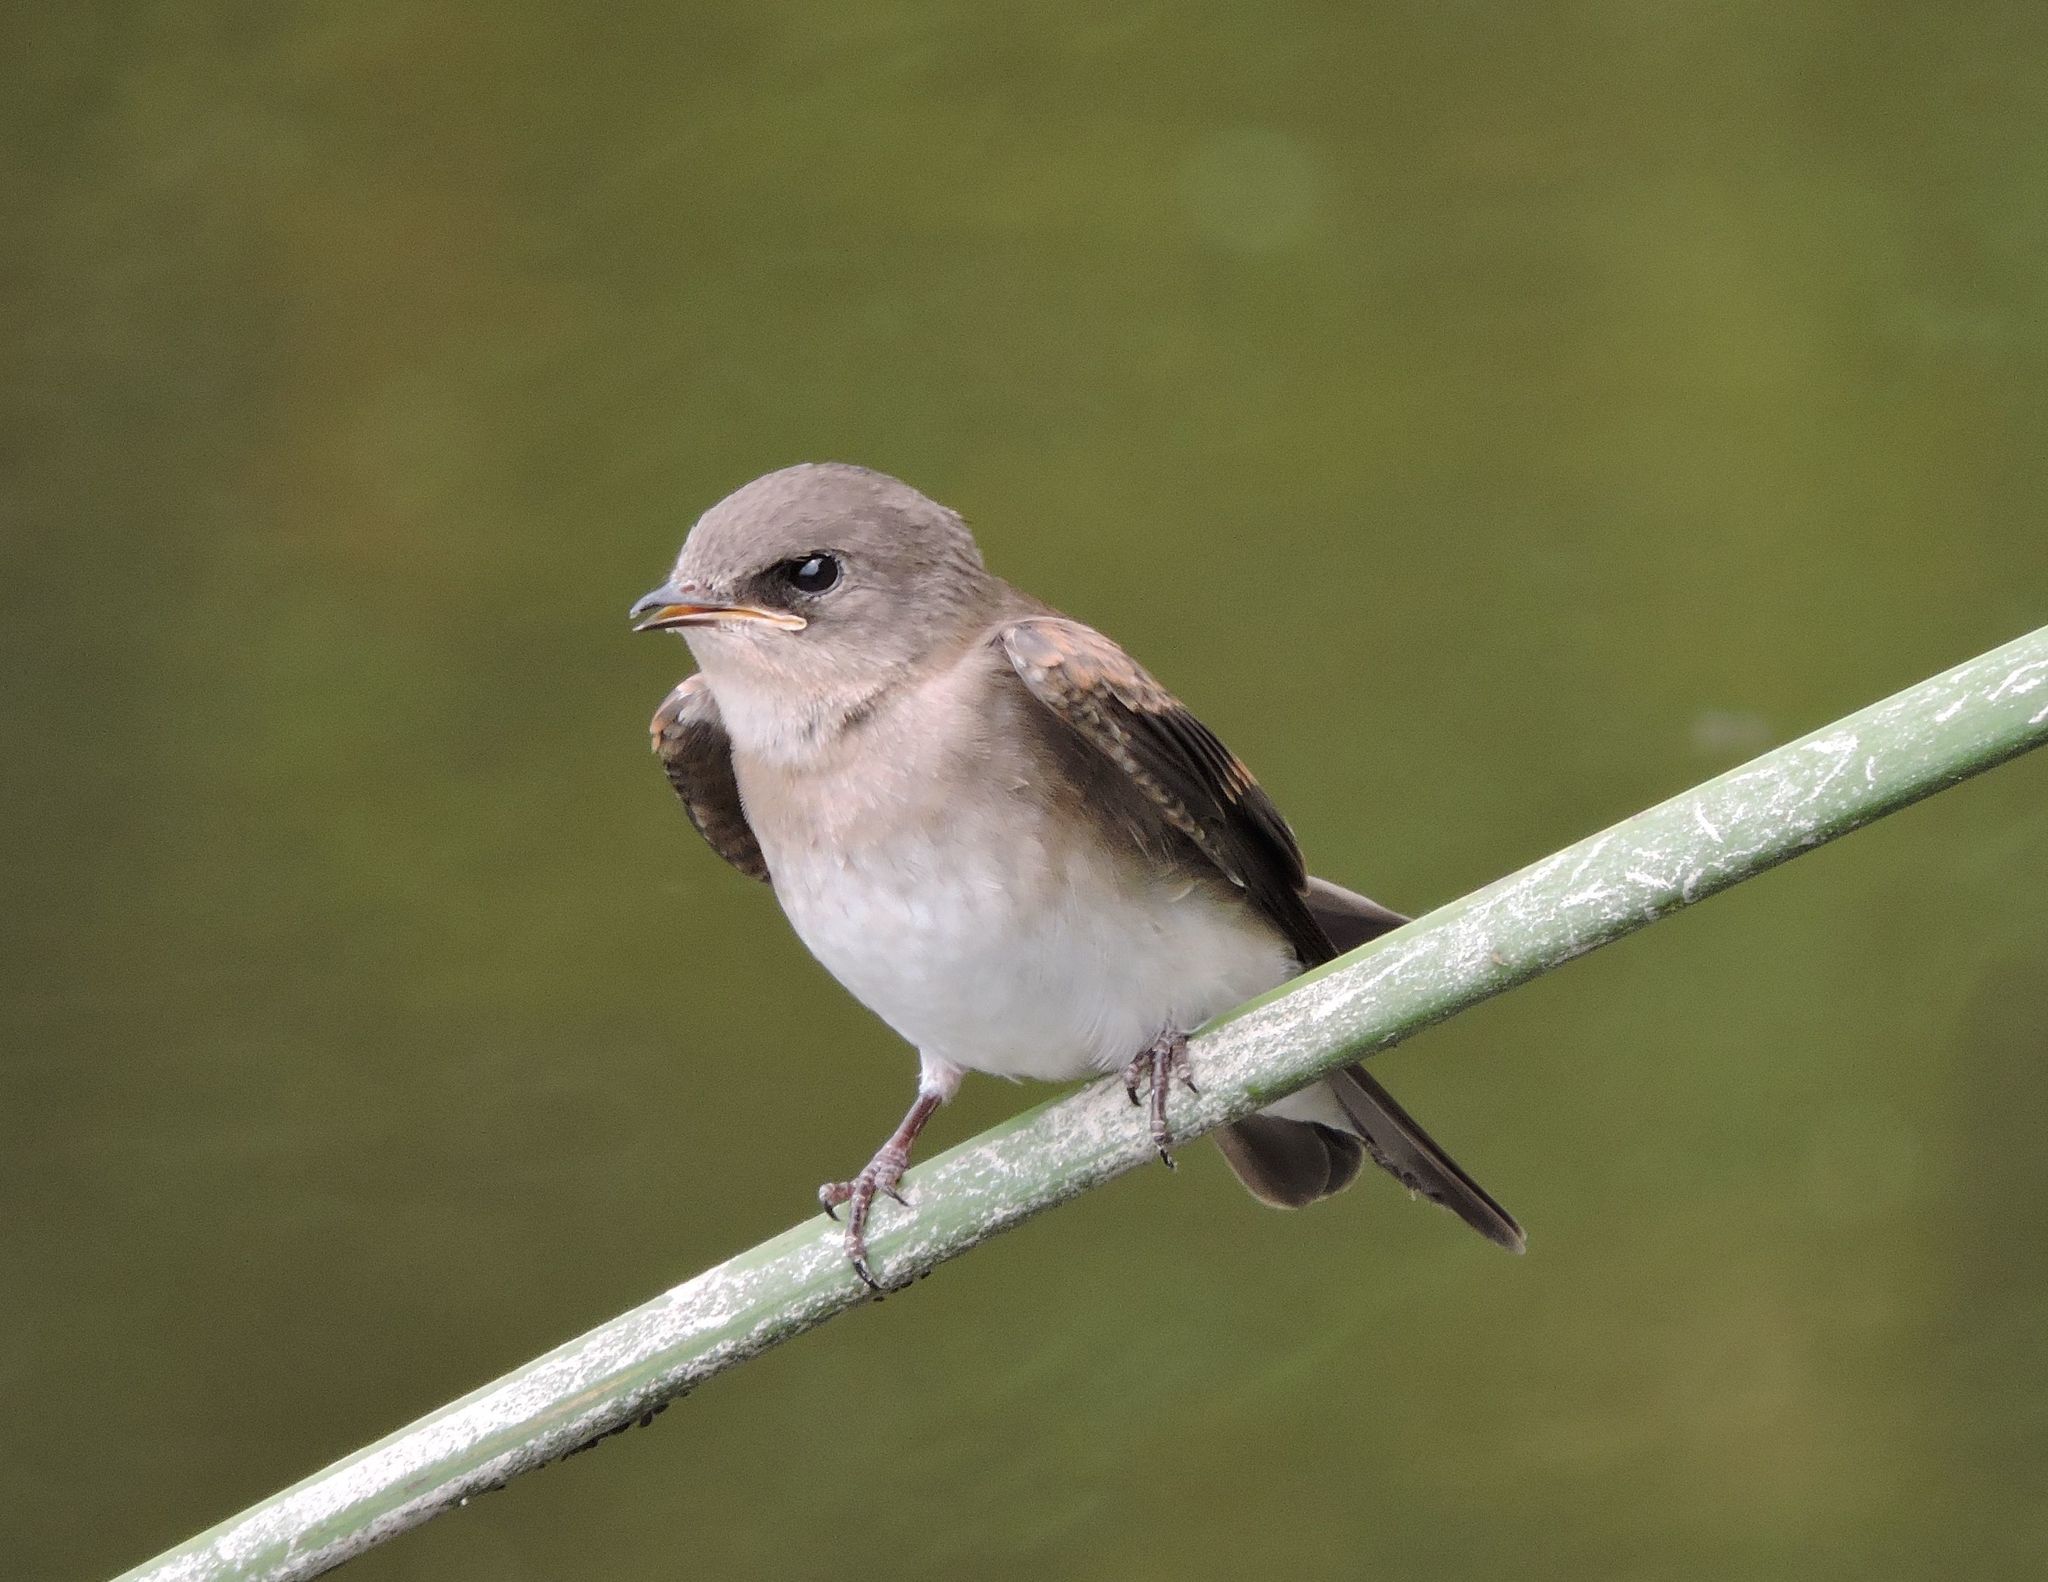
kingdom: Animalia
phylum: Chordata
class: Aves
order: Passeriformes
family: Hirundinidae
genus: Stelgidopteryx
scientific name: Stelgidopteryx serripennis
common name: Northern rough-winged swallow
